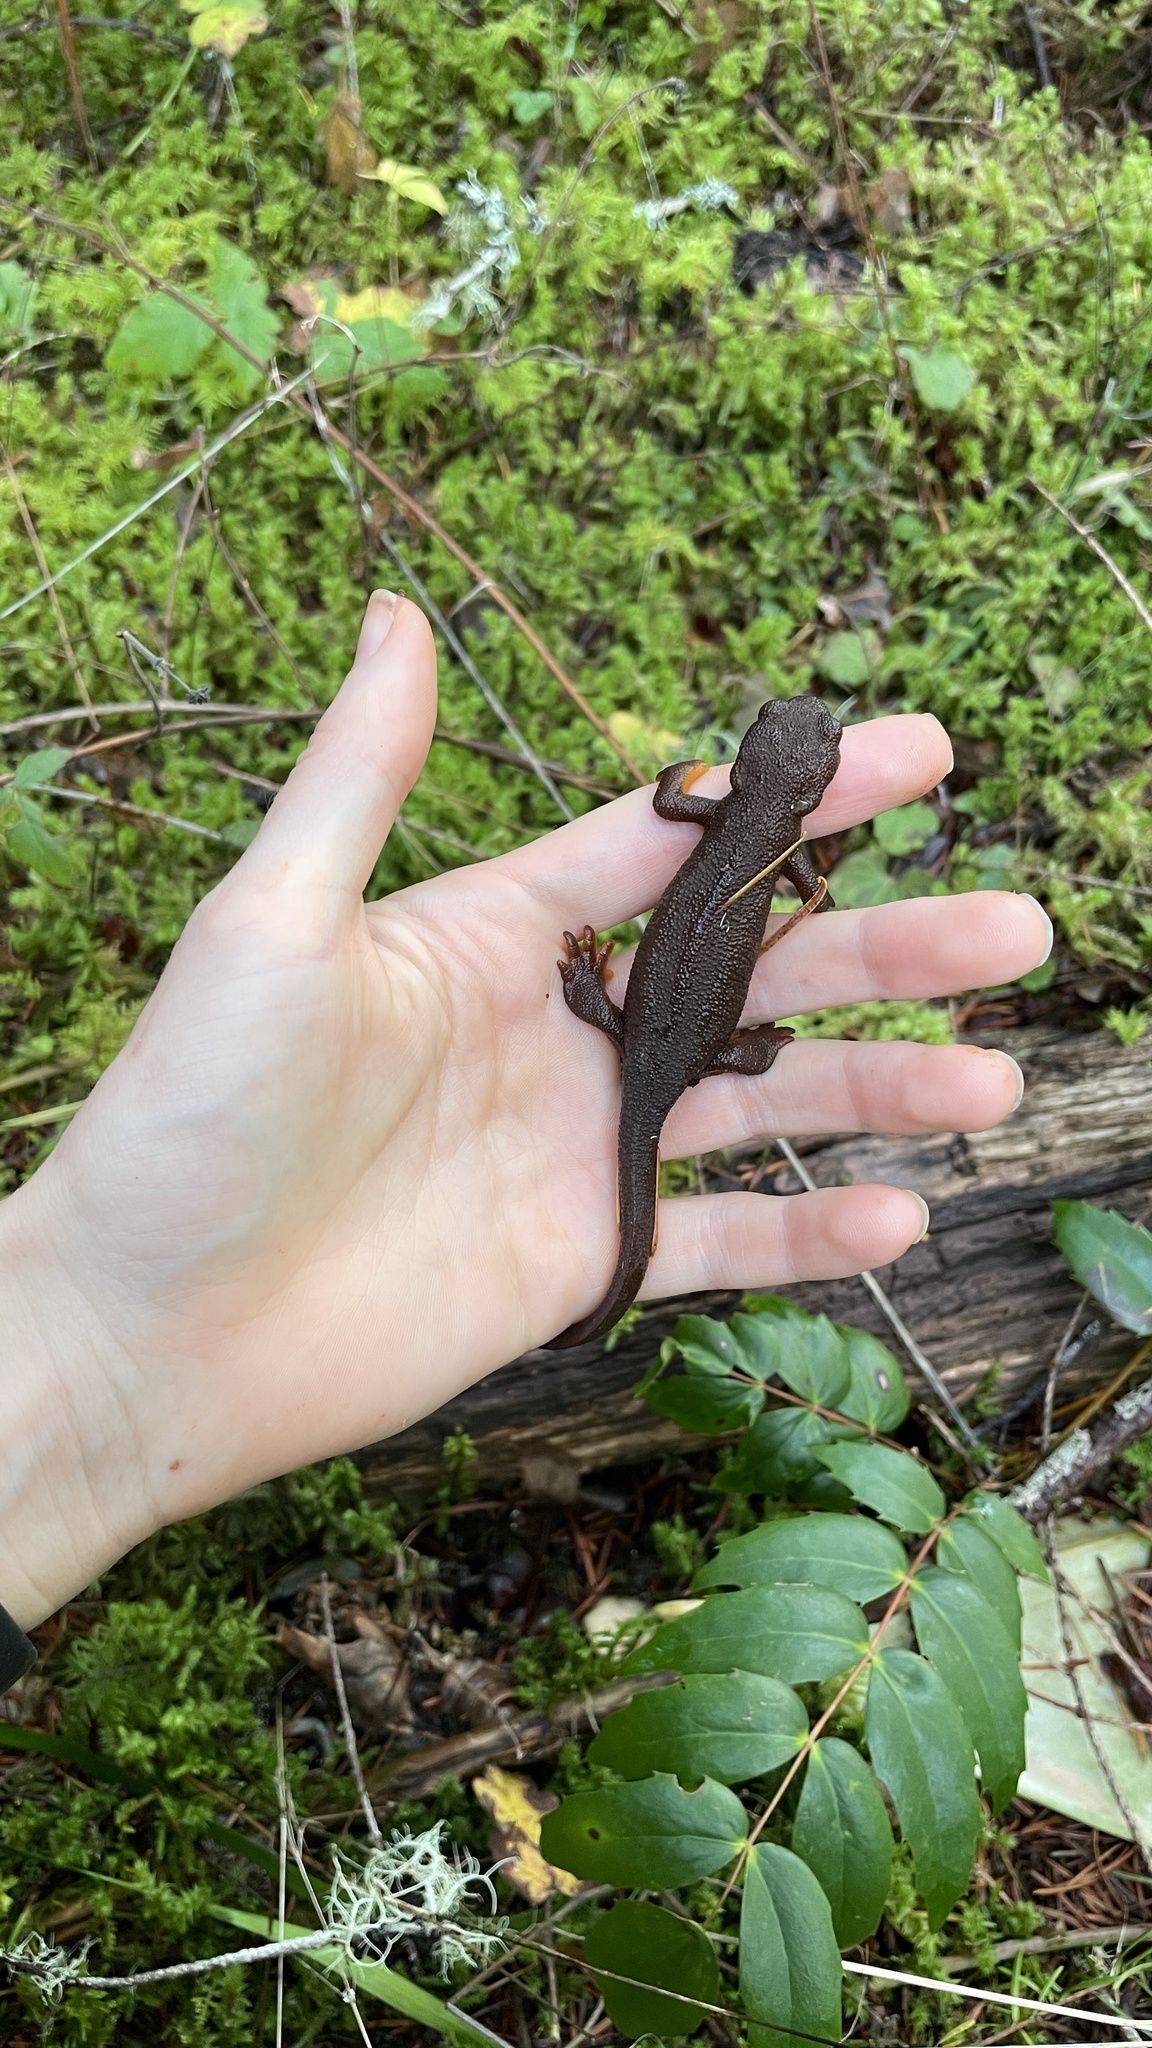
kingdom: Animalia
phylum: Chordata
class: Amphibia
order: Caudata
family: Salamandridae
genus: Taricha
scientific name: Taricha granulosa
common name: Roughskin newt
